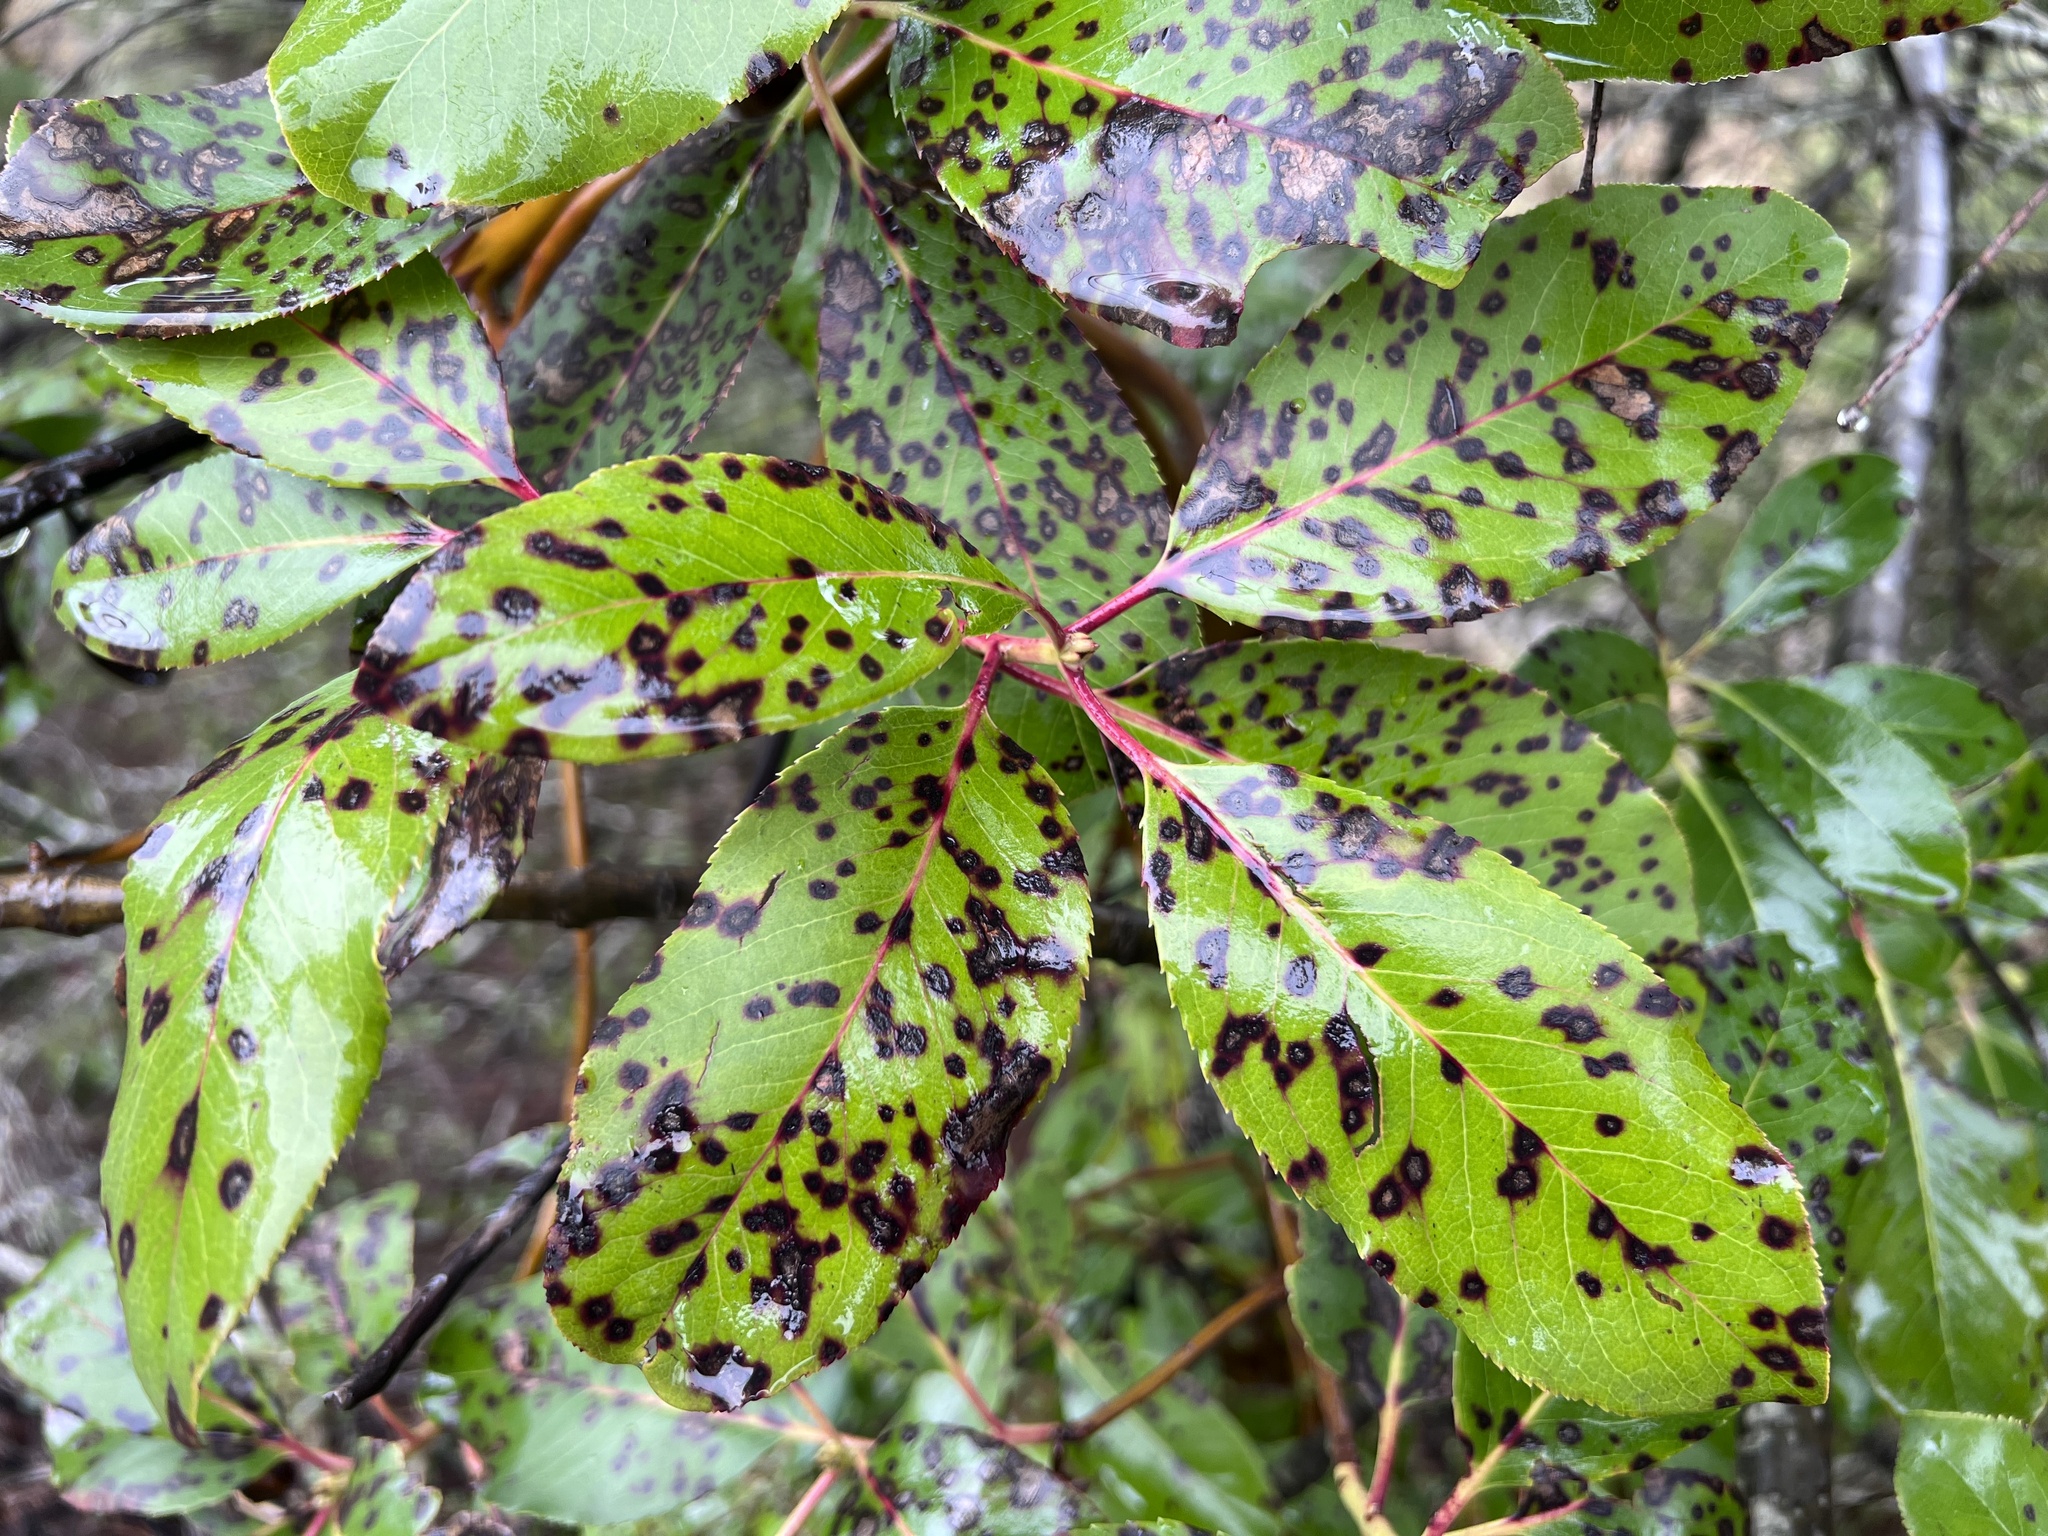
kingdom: Plantae
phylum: Tracheophyta
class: Magnoliopsida
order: Ericales
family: Ericaceae
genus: Arbutus
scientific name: Arbutus menziesii
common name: Pacific madrone
